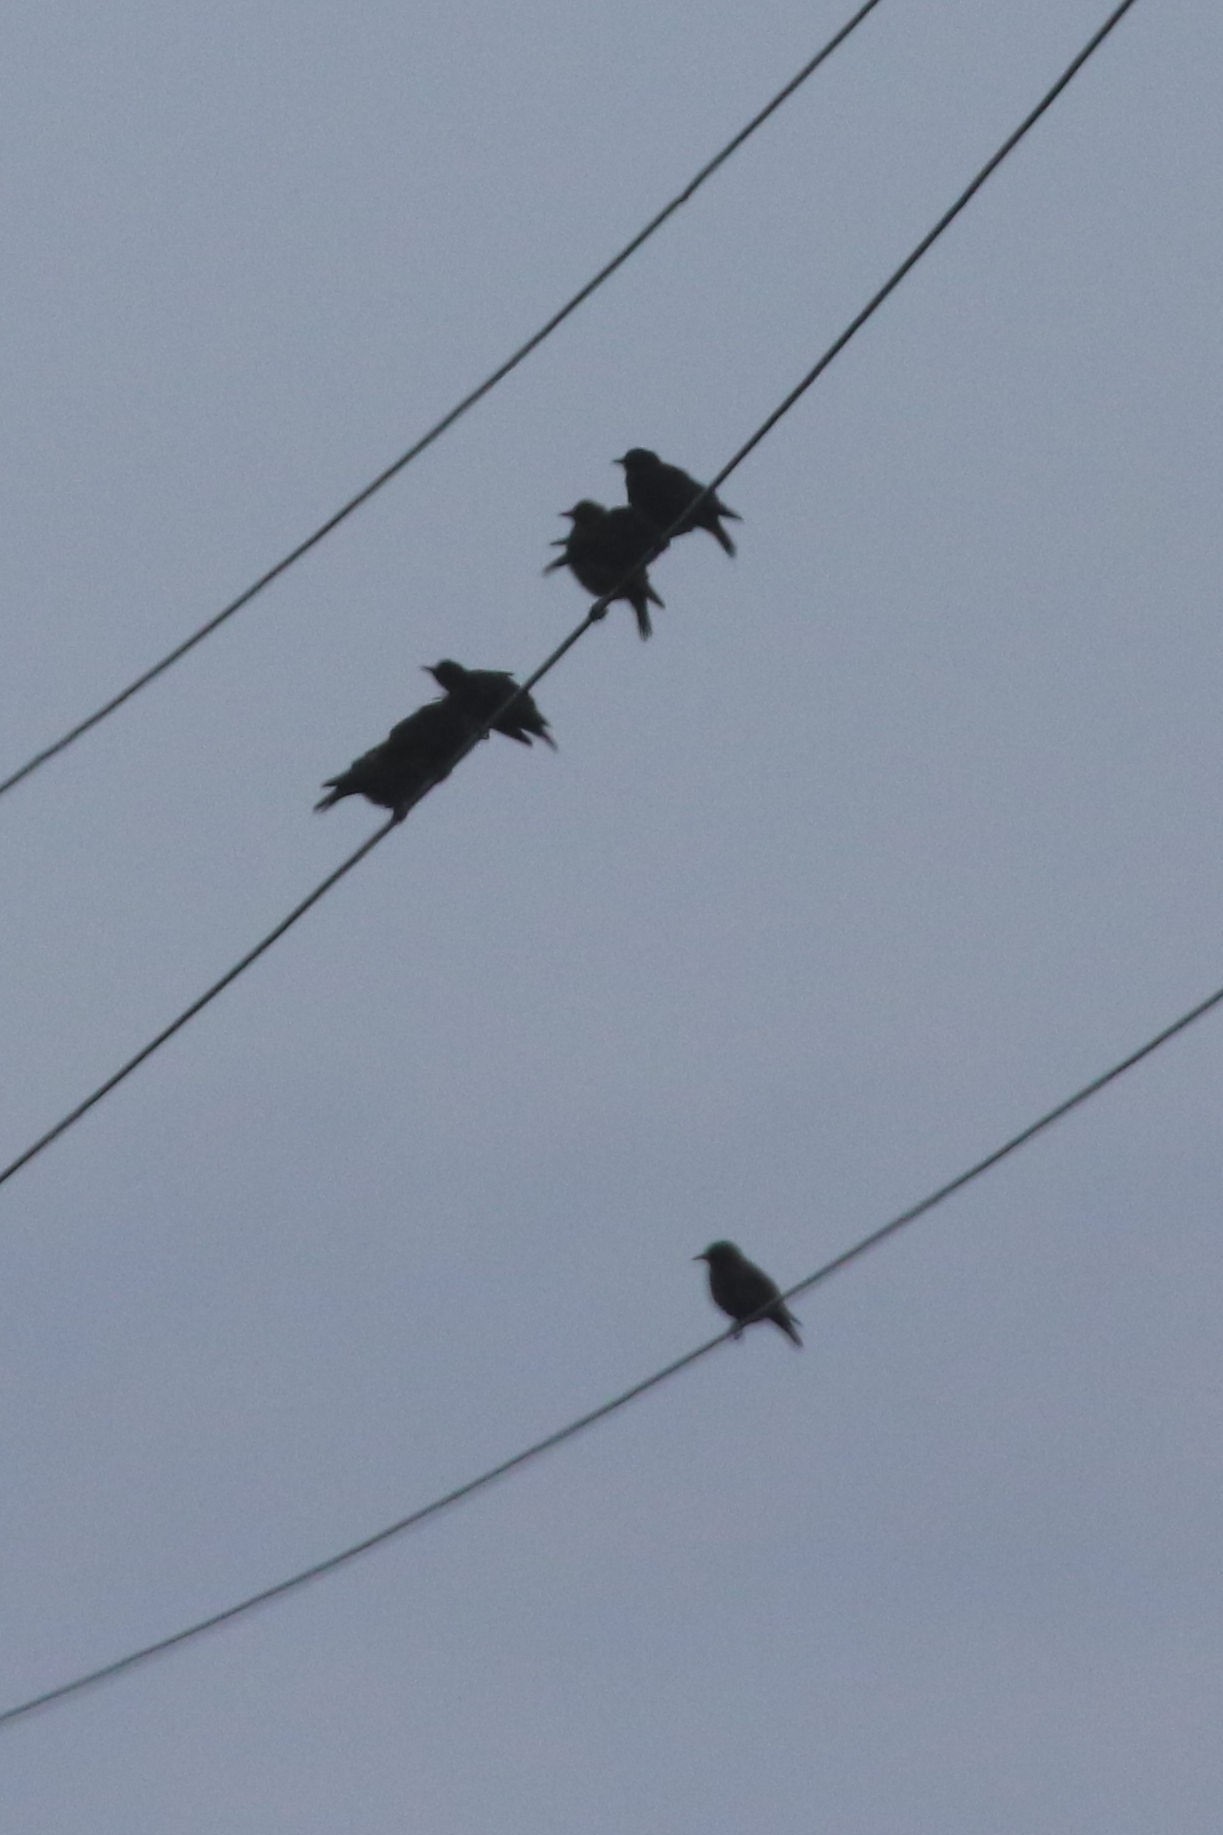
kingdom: Animalia
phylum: Chordata
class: Aves
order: Passeriformes
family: Sturnidae
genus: Sturnus
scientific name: Sturnus vulgaris
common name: Common starling
